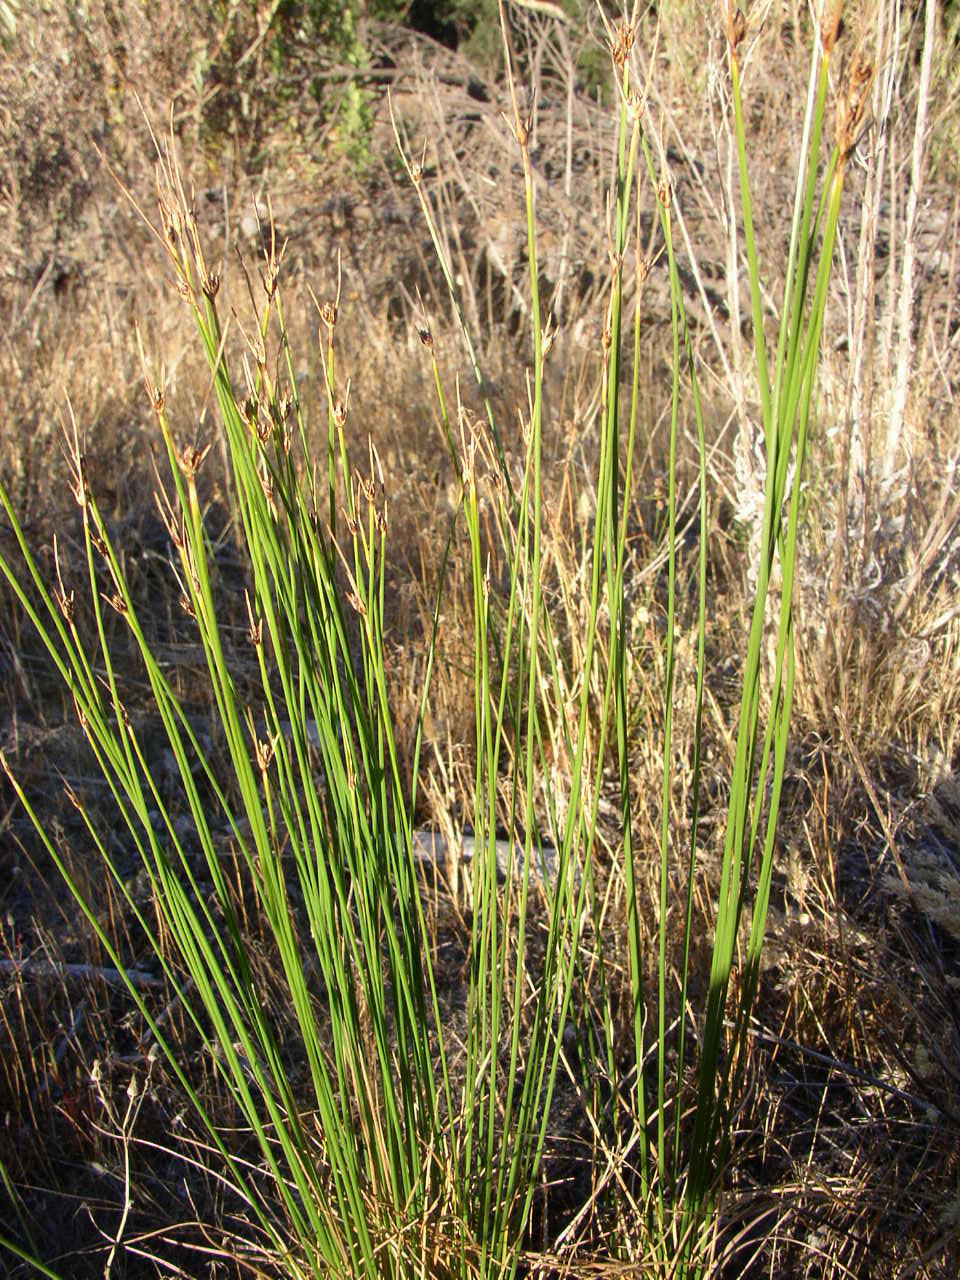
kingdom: Plantae
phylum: Tracheophyta
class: Liliopsida
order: Poales
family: Cyperaceae
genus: Ficinia
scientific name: Ficinia indica
